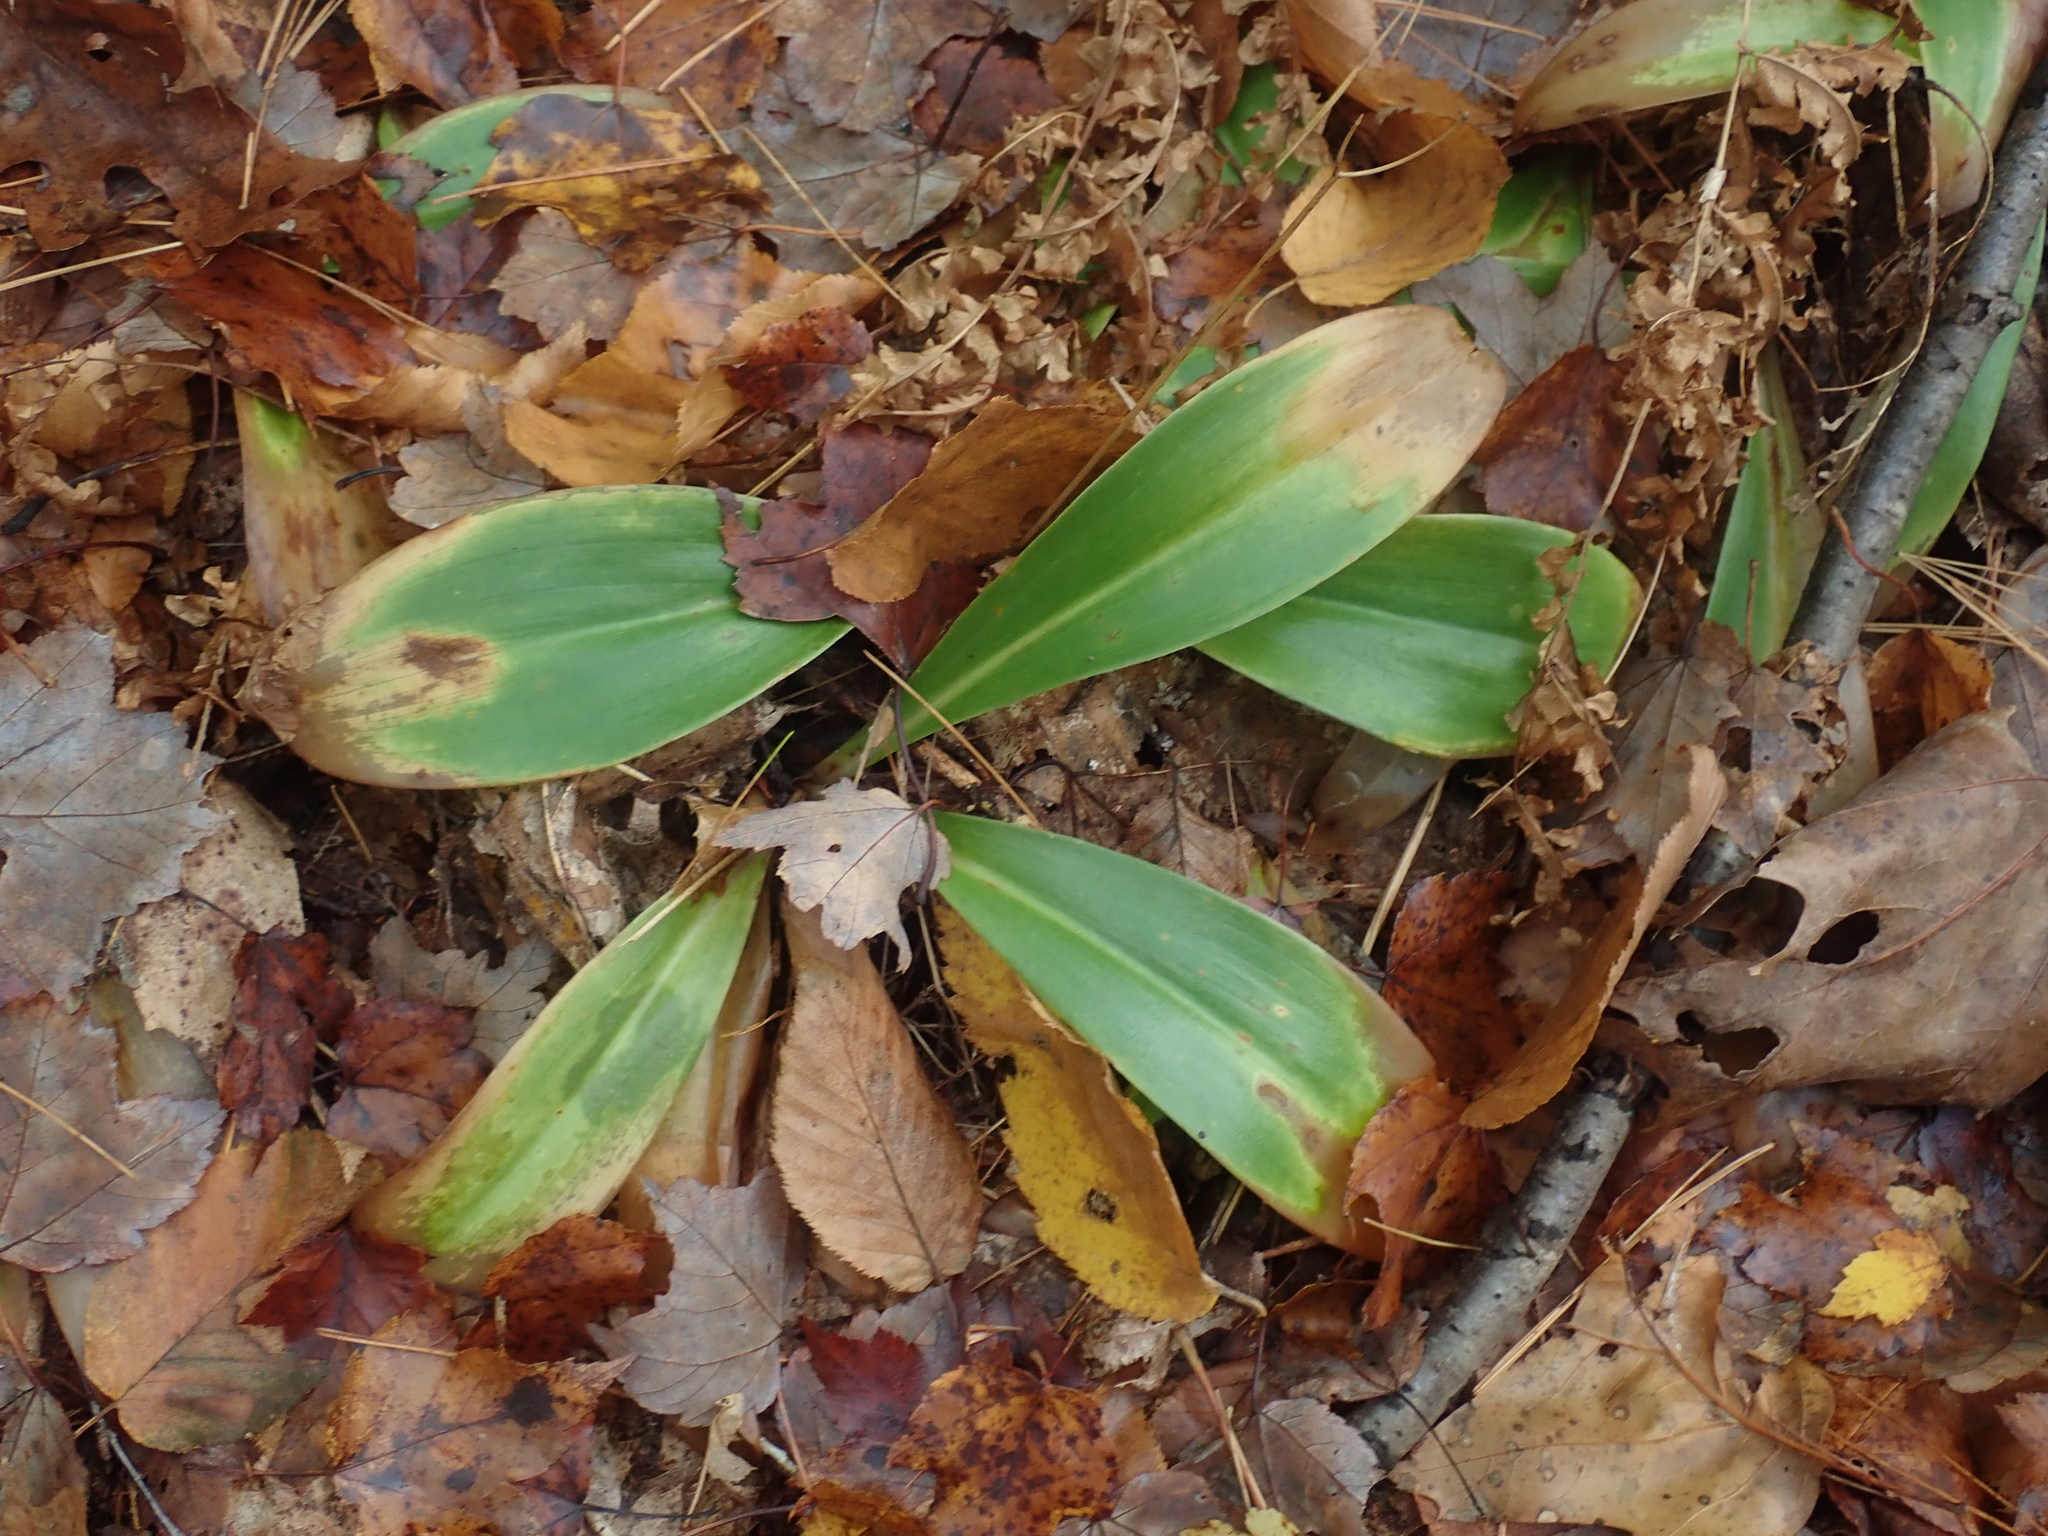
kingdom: Plantae
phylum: Tracheophyta
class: Liliopsida
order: Liliales
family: Liliaceae
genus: Clintonia
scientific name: Clintonia borealis
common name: Yellow clintonia
